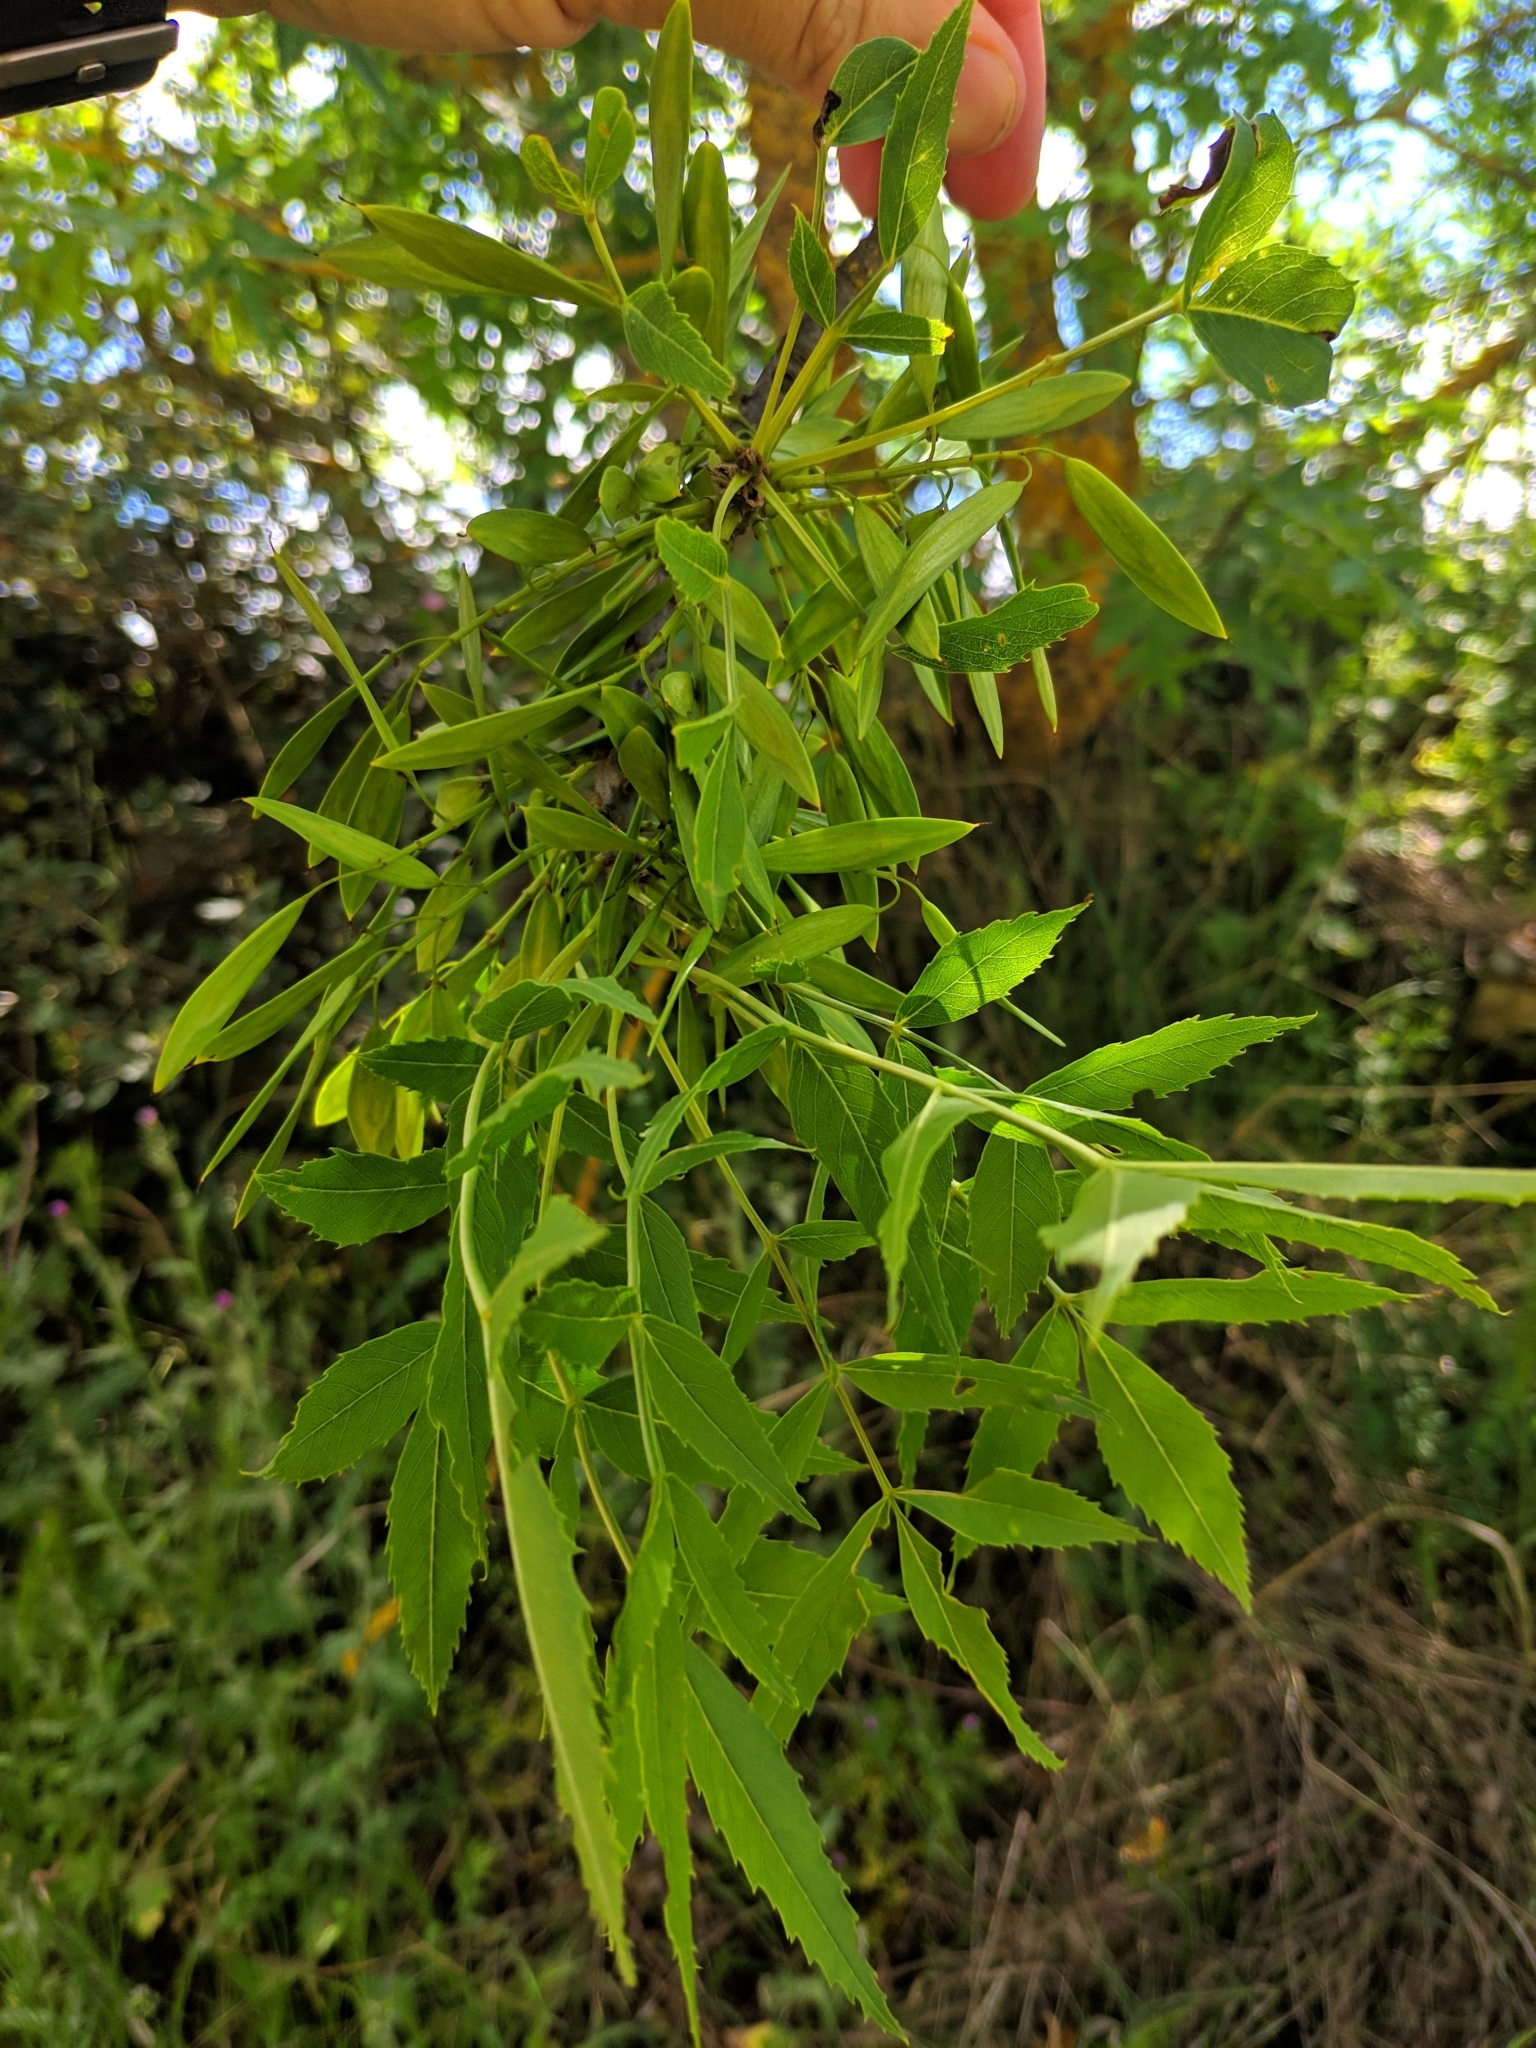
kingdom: Plantae
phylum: Tracheophyta
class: Magnoliopsida
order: Lamiales
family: Oleaceae
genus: Fraxinus
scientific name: Fraxinus angustifolia
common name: Narrow-leafed ash
